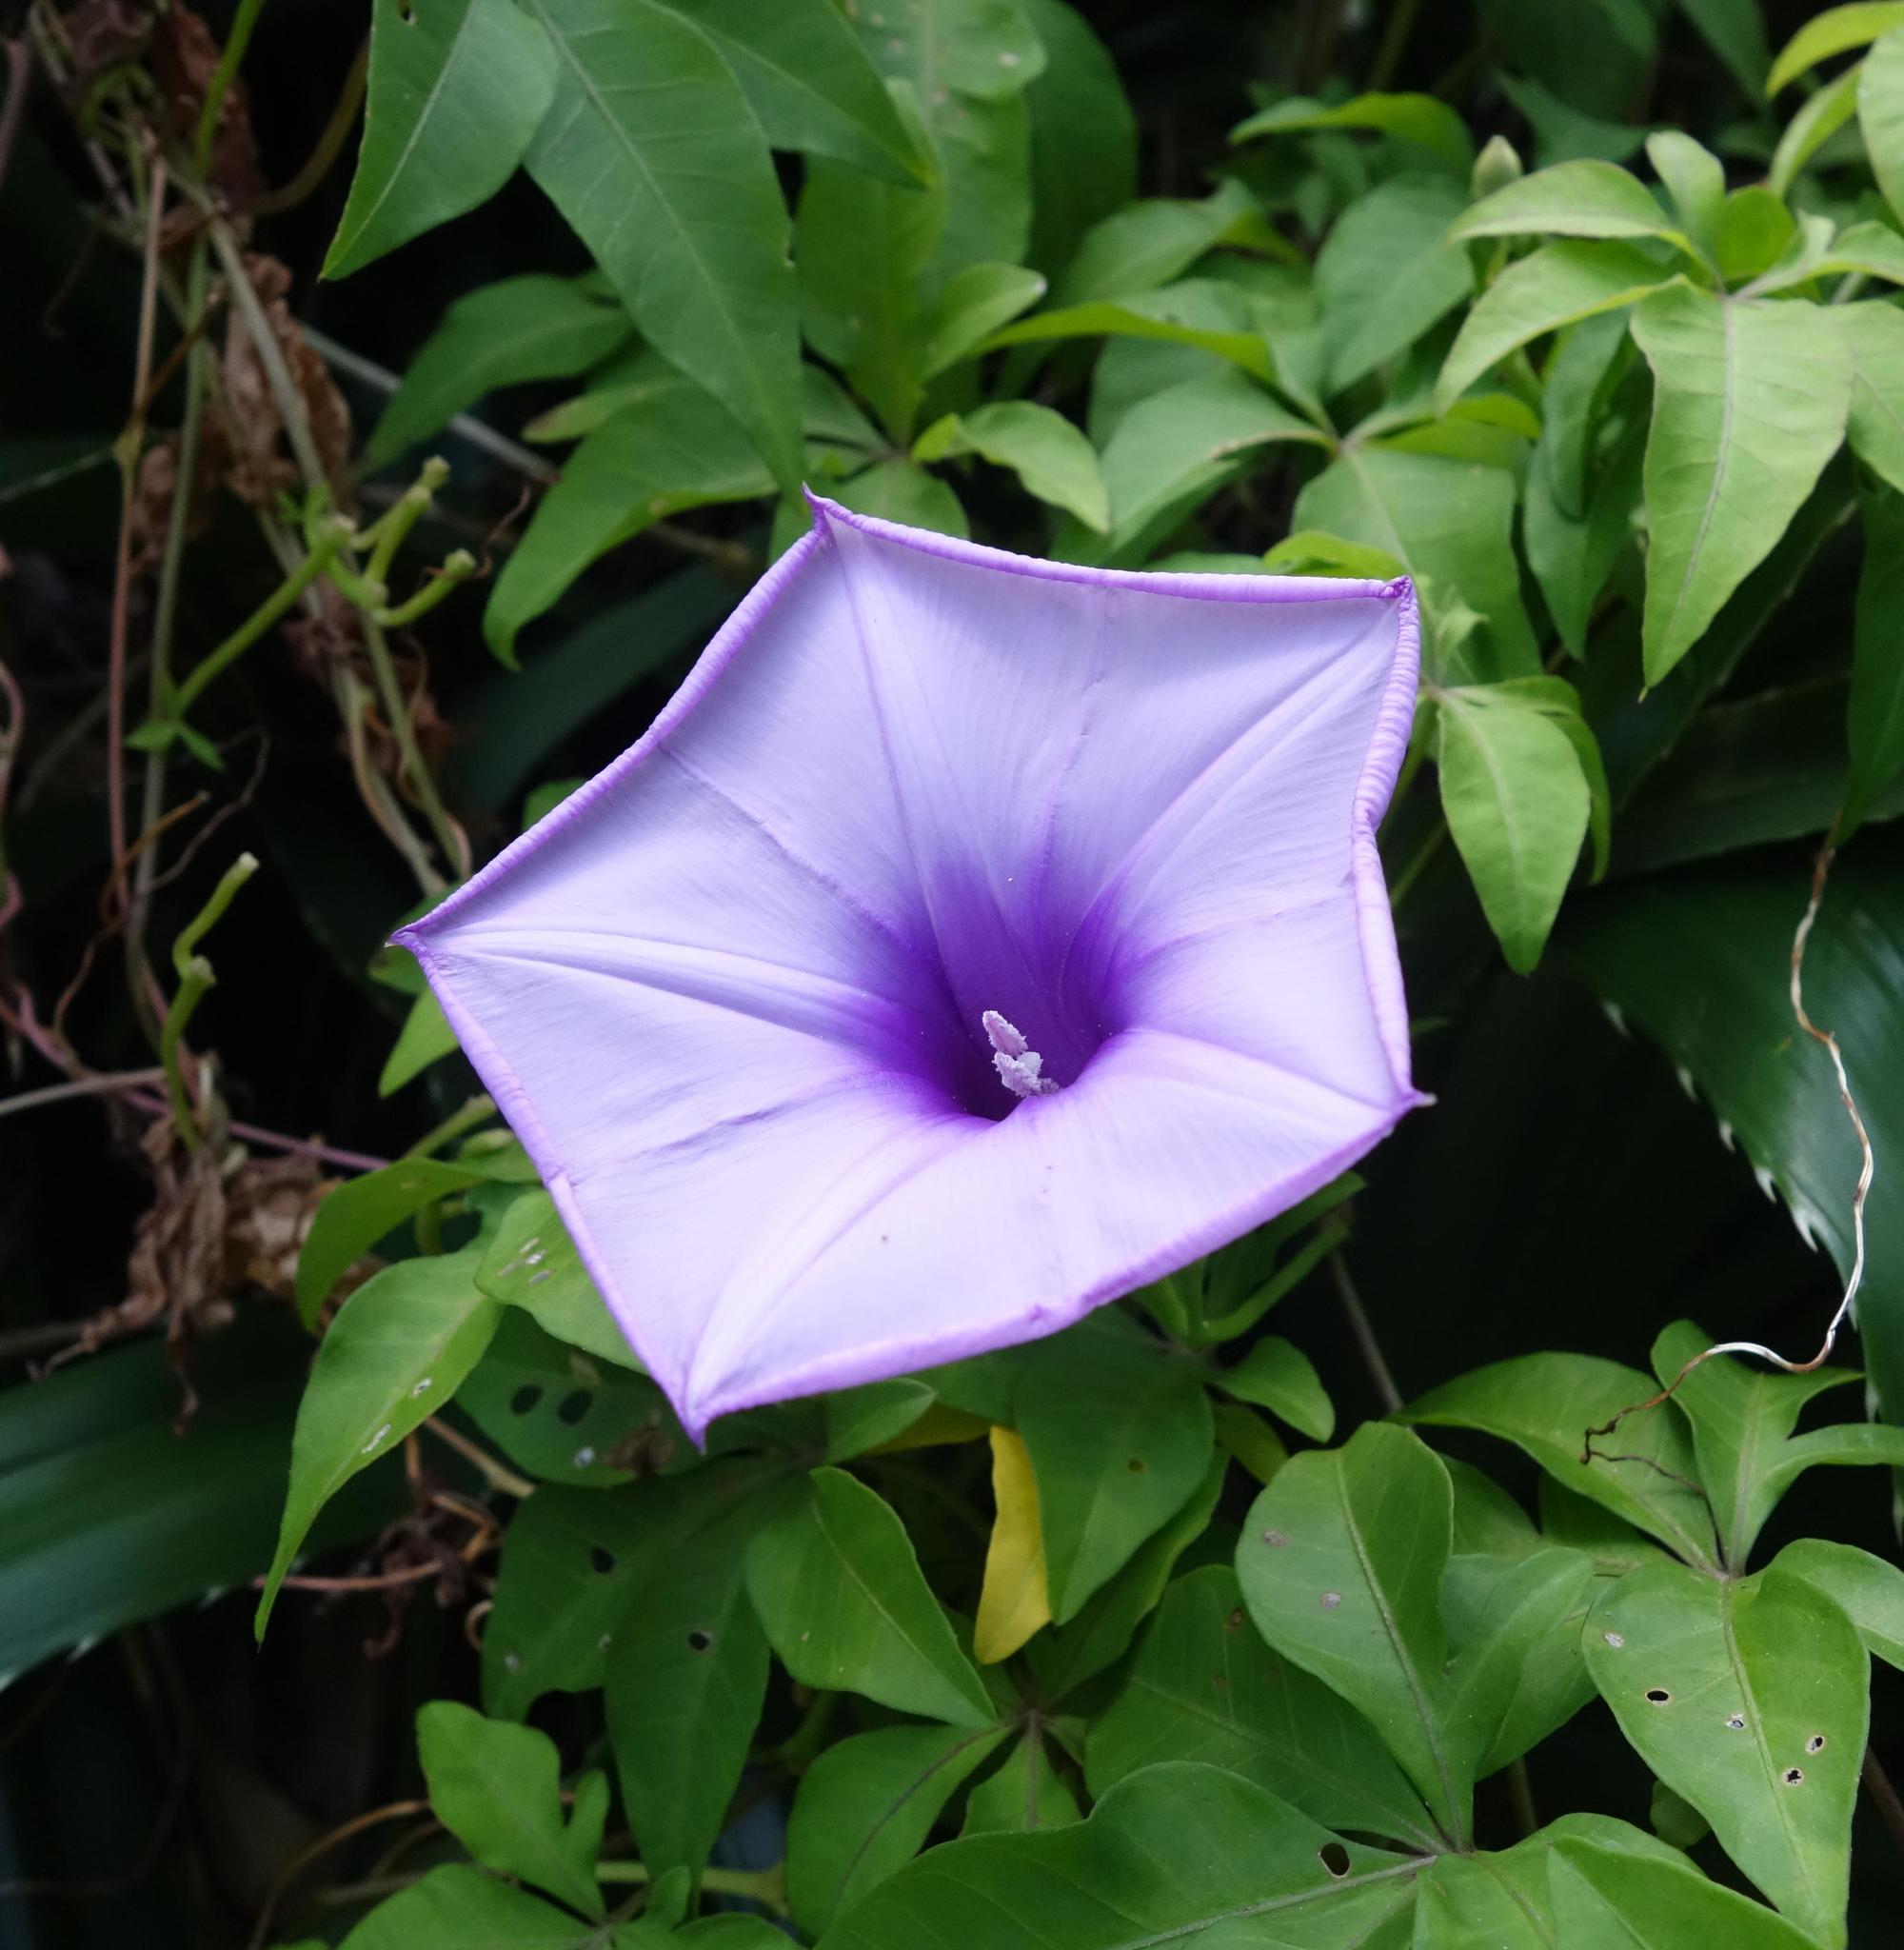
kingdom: Plantae
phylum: Tracheophyta
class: Magnoliopsida
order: Solanales
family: Convolvulaceae
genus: Ipomoea
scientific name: Ipomoea cairica
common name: Mile a minute vine
